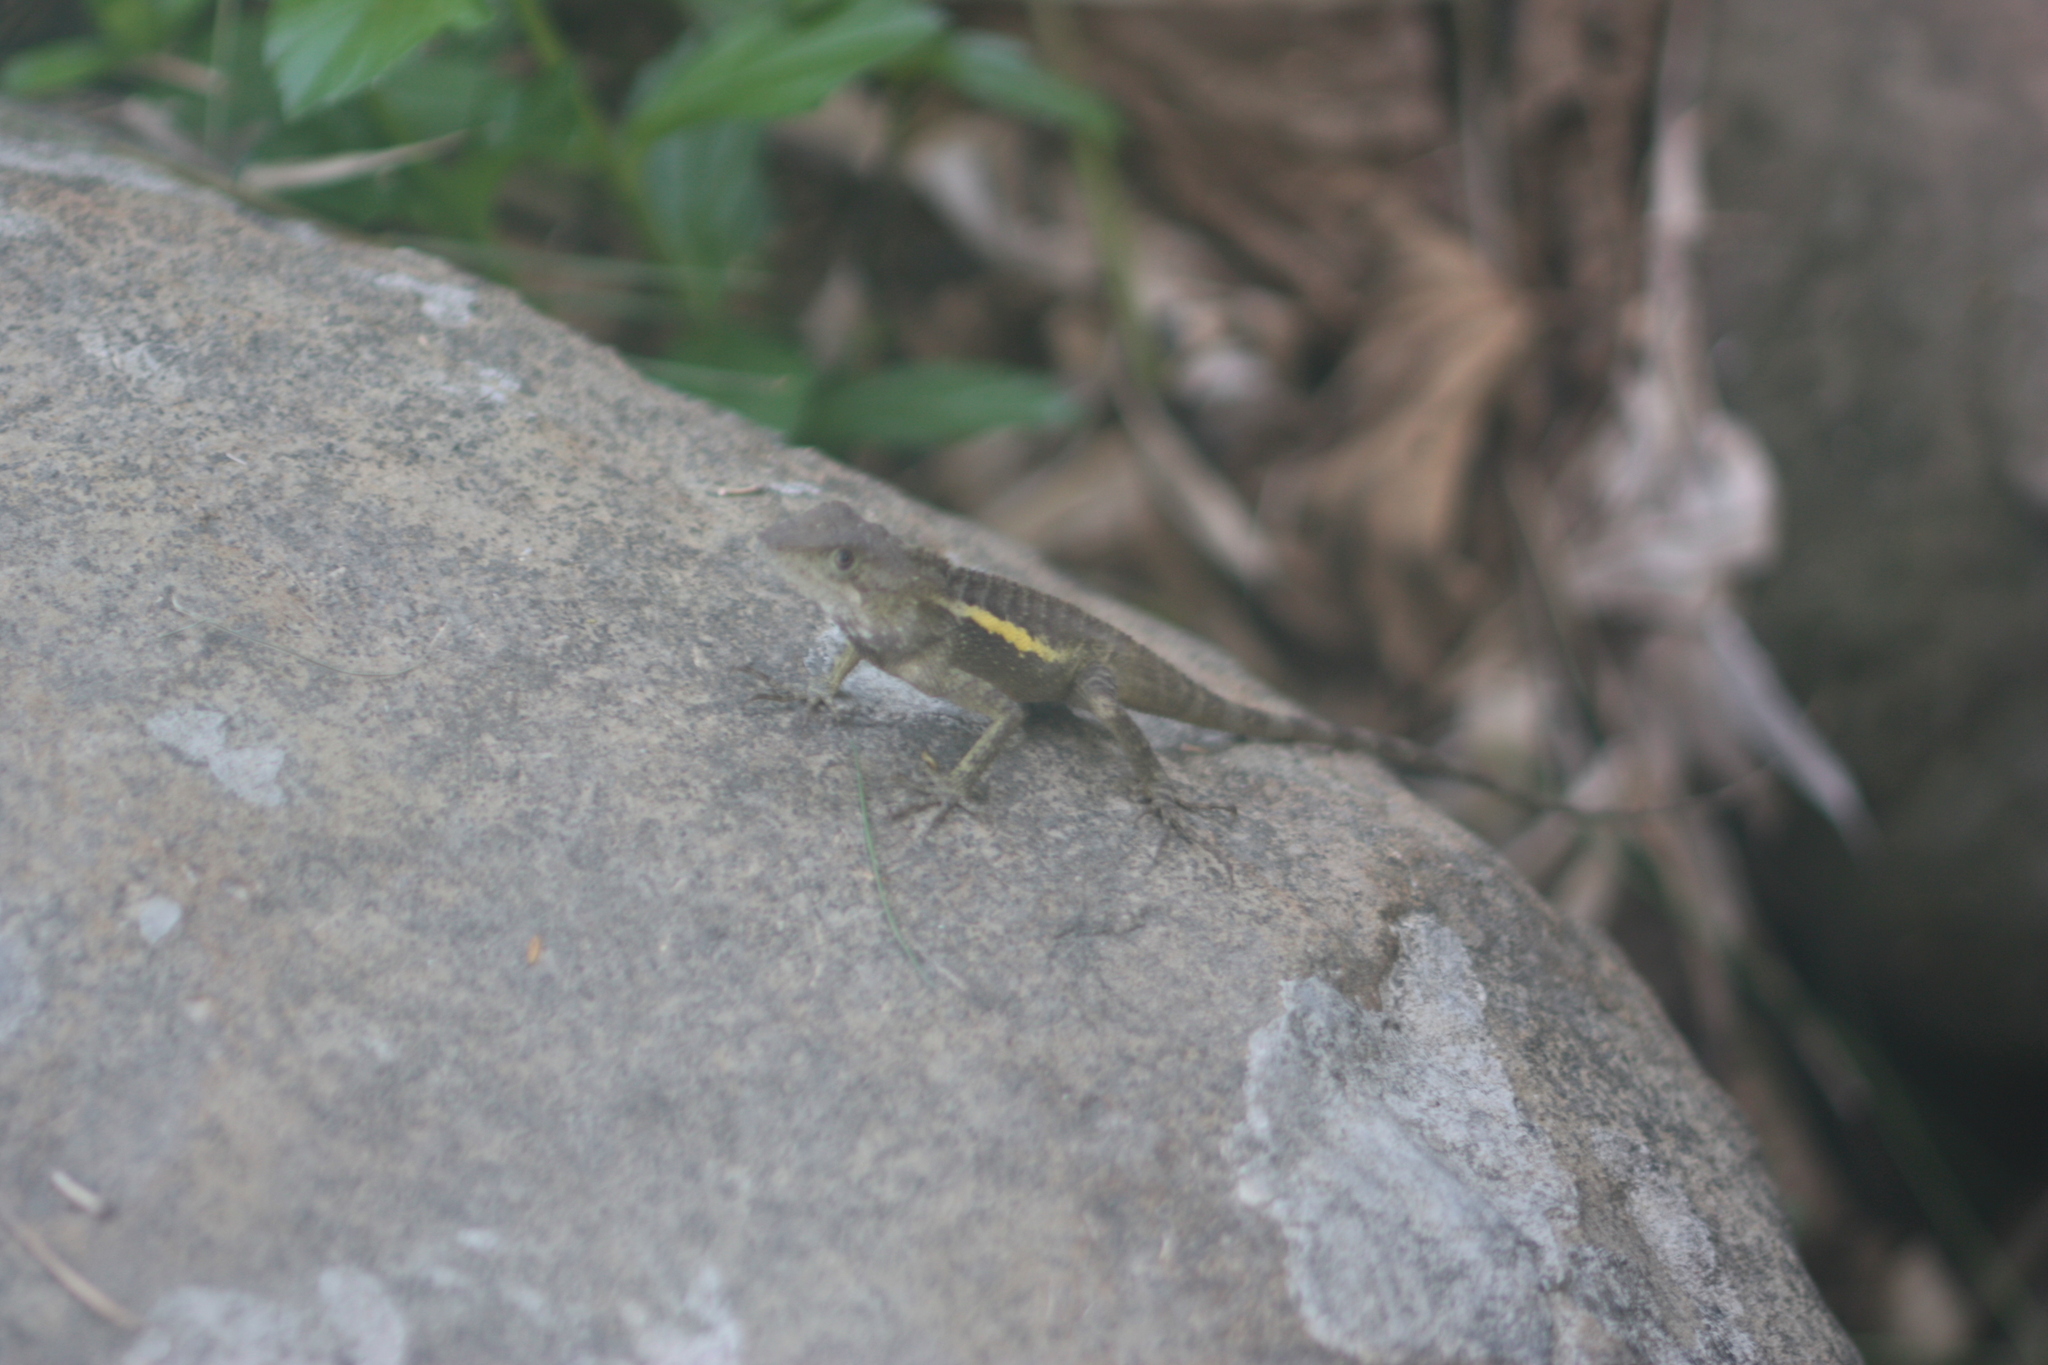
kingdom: Animalia
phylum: Chordata
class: Squamata
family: Agamidae
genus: Diploderma
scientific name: Diploderma swinhonis
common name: Taiwan japalure
